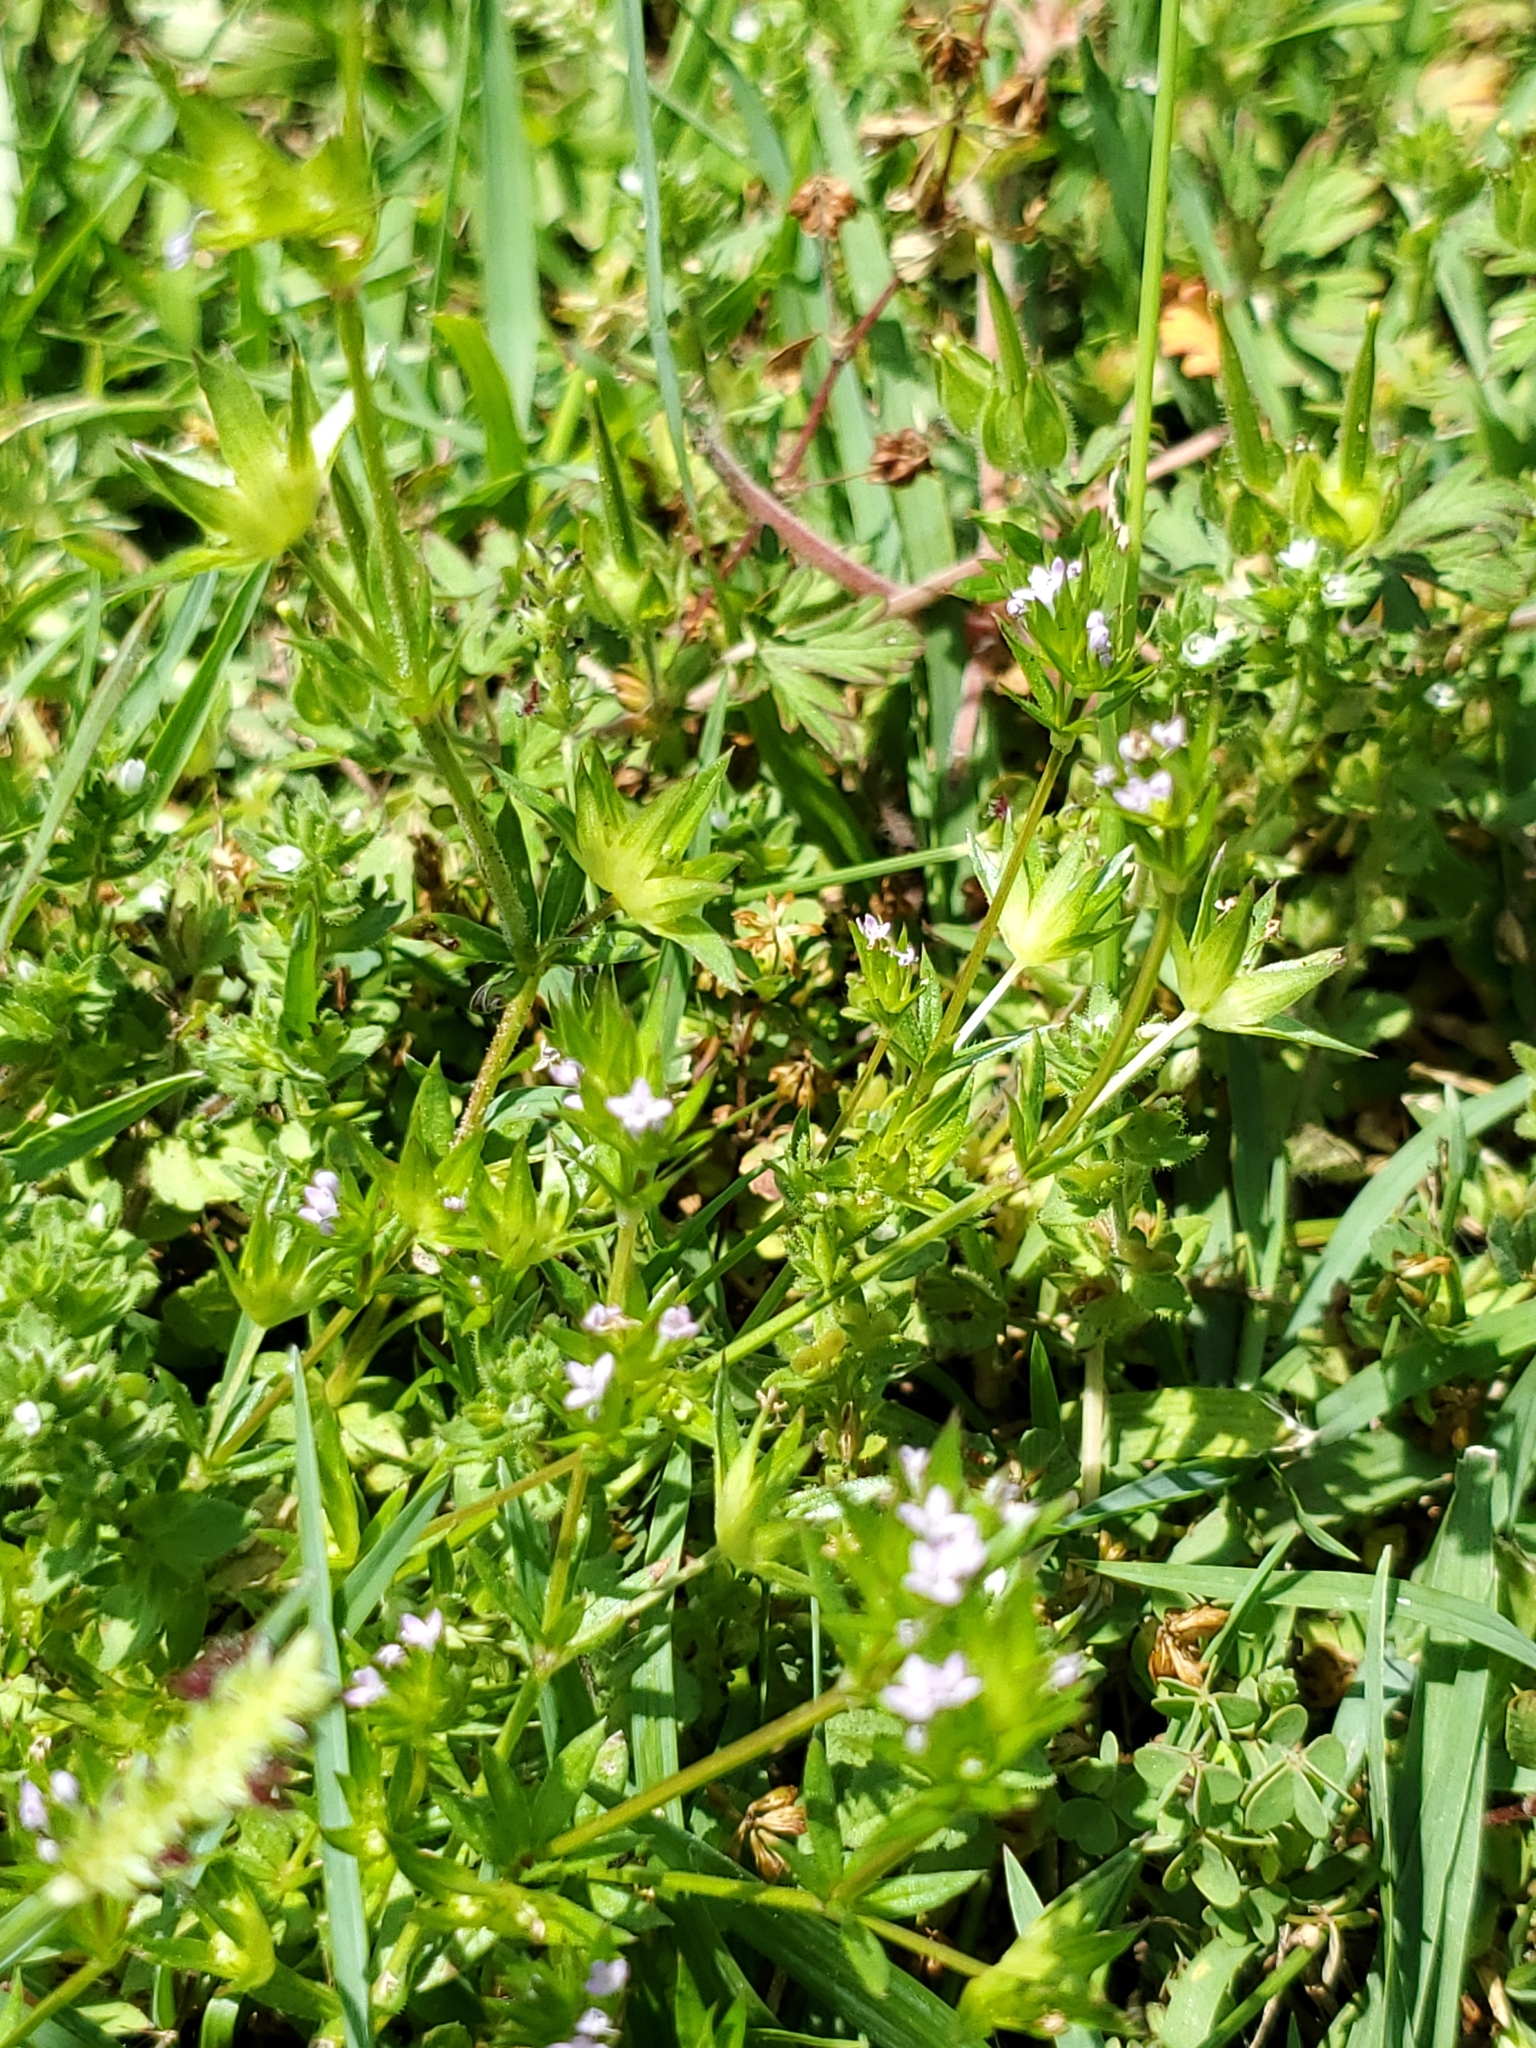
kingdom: Plantae
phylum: Tracheophyta
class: Magnoliopsida
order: Gentianales
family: Rubiaceae
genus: Sherardia
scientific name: Sherardia arvensis
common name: Field madder
